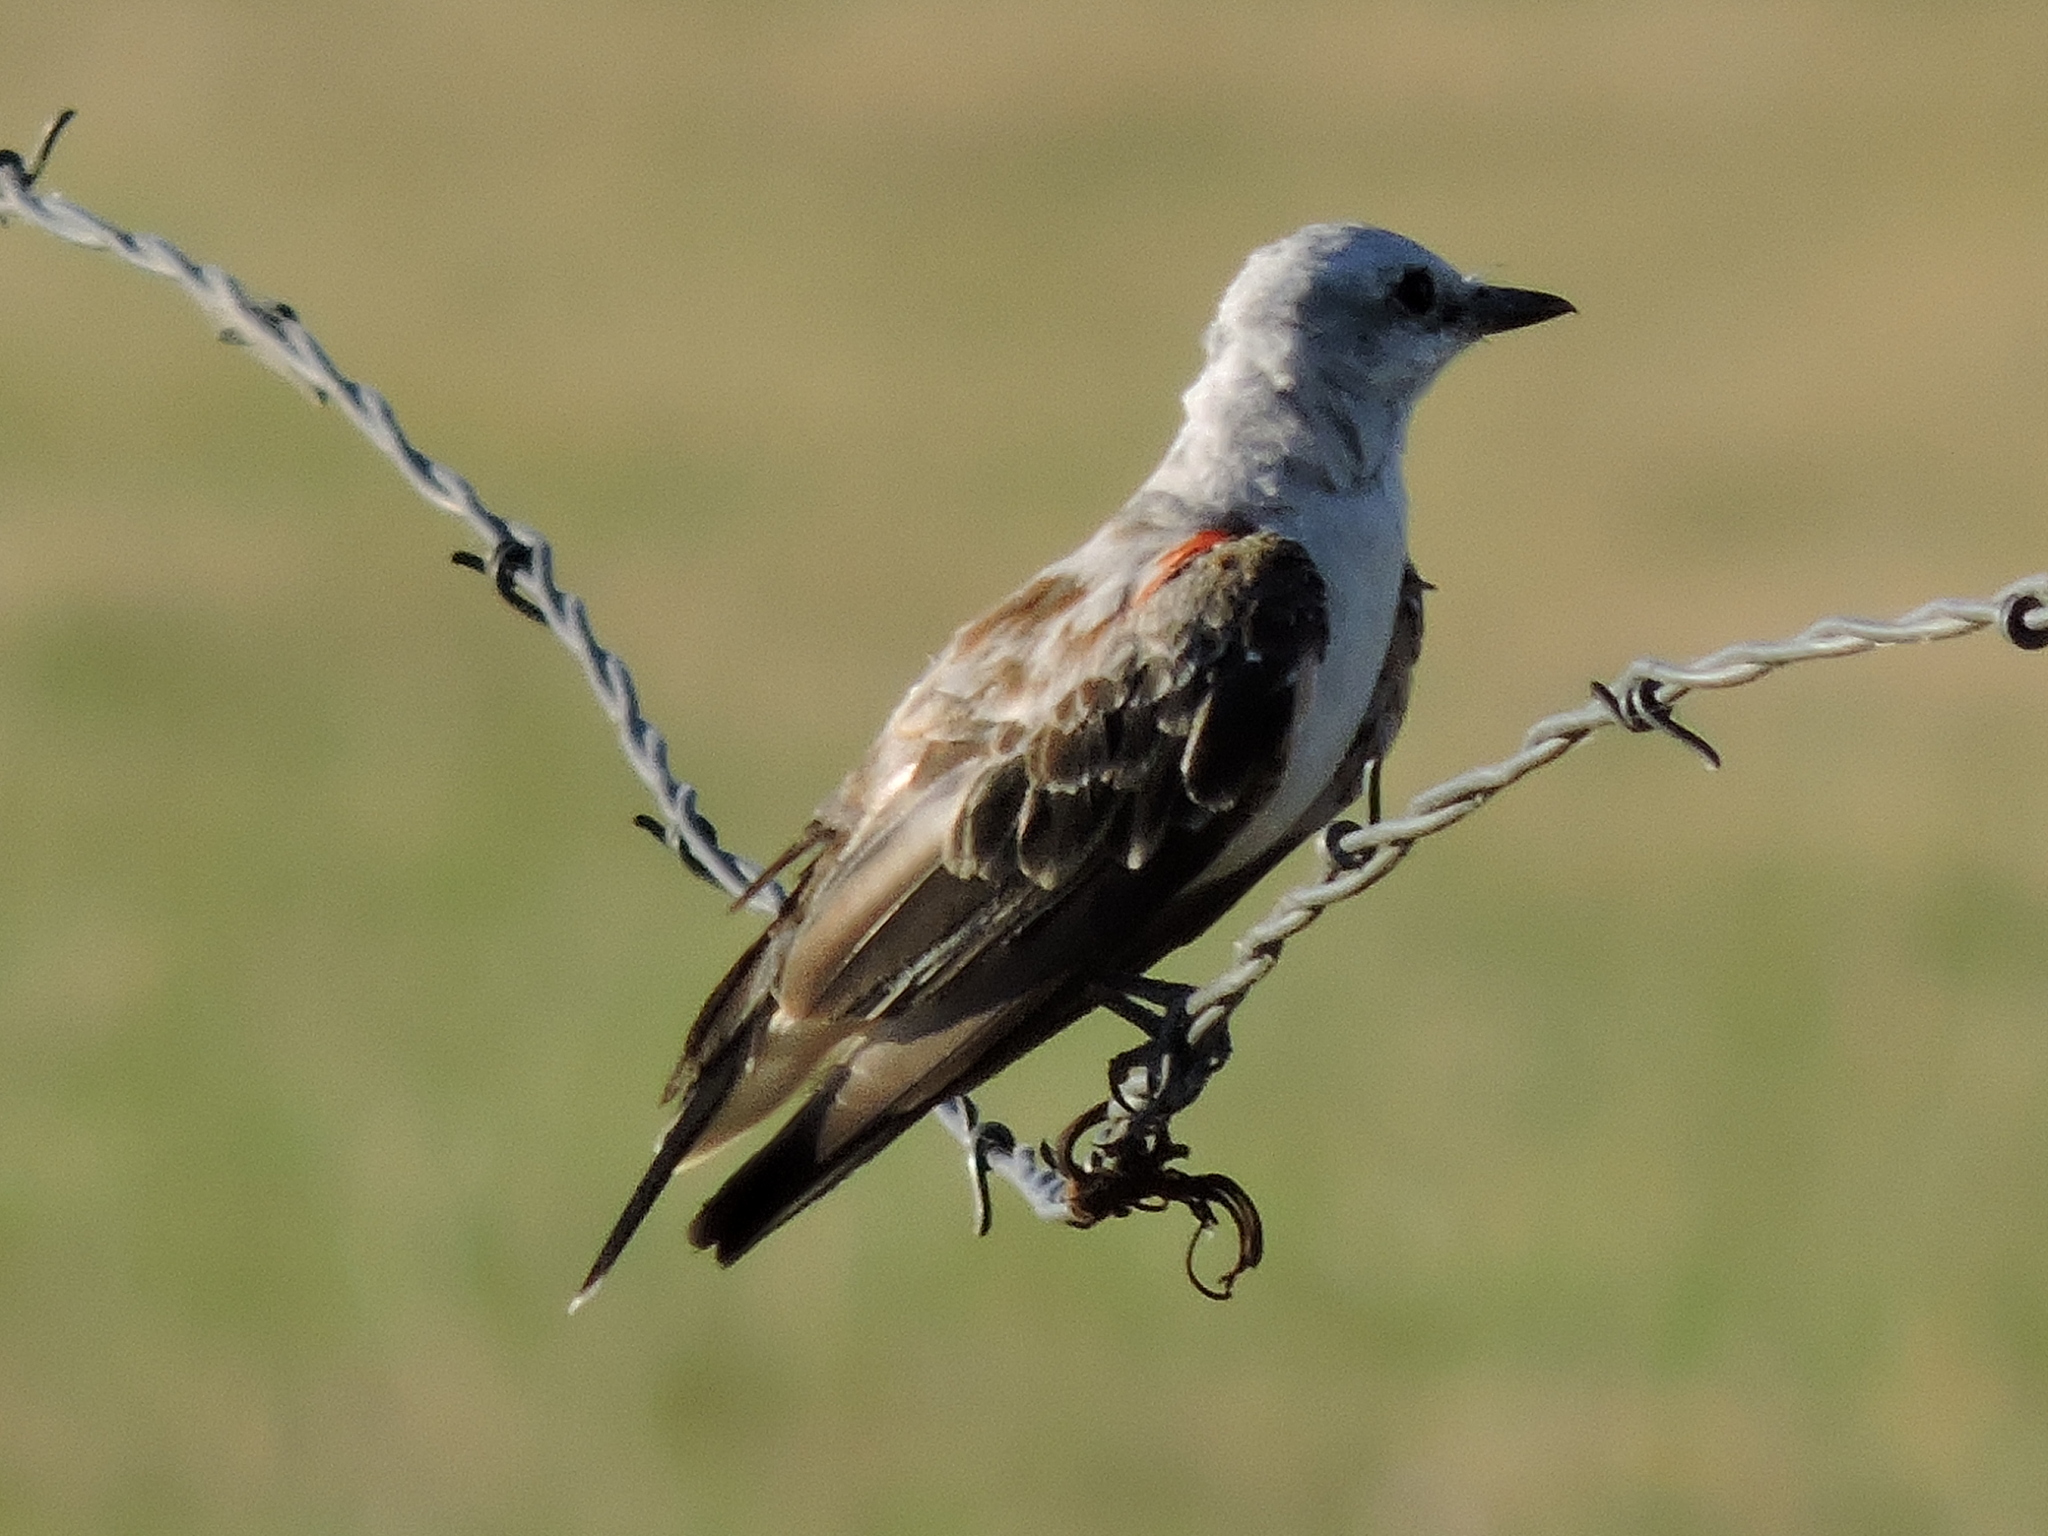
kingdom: Animalia
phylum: Chordata
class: Aves
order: Passeriformes
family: Tyrannidae
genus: Tyrannus
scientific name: Tyrannus forficatus
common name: Scissor-tailed flycatcher
